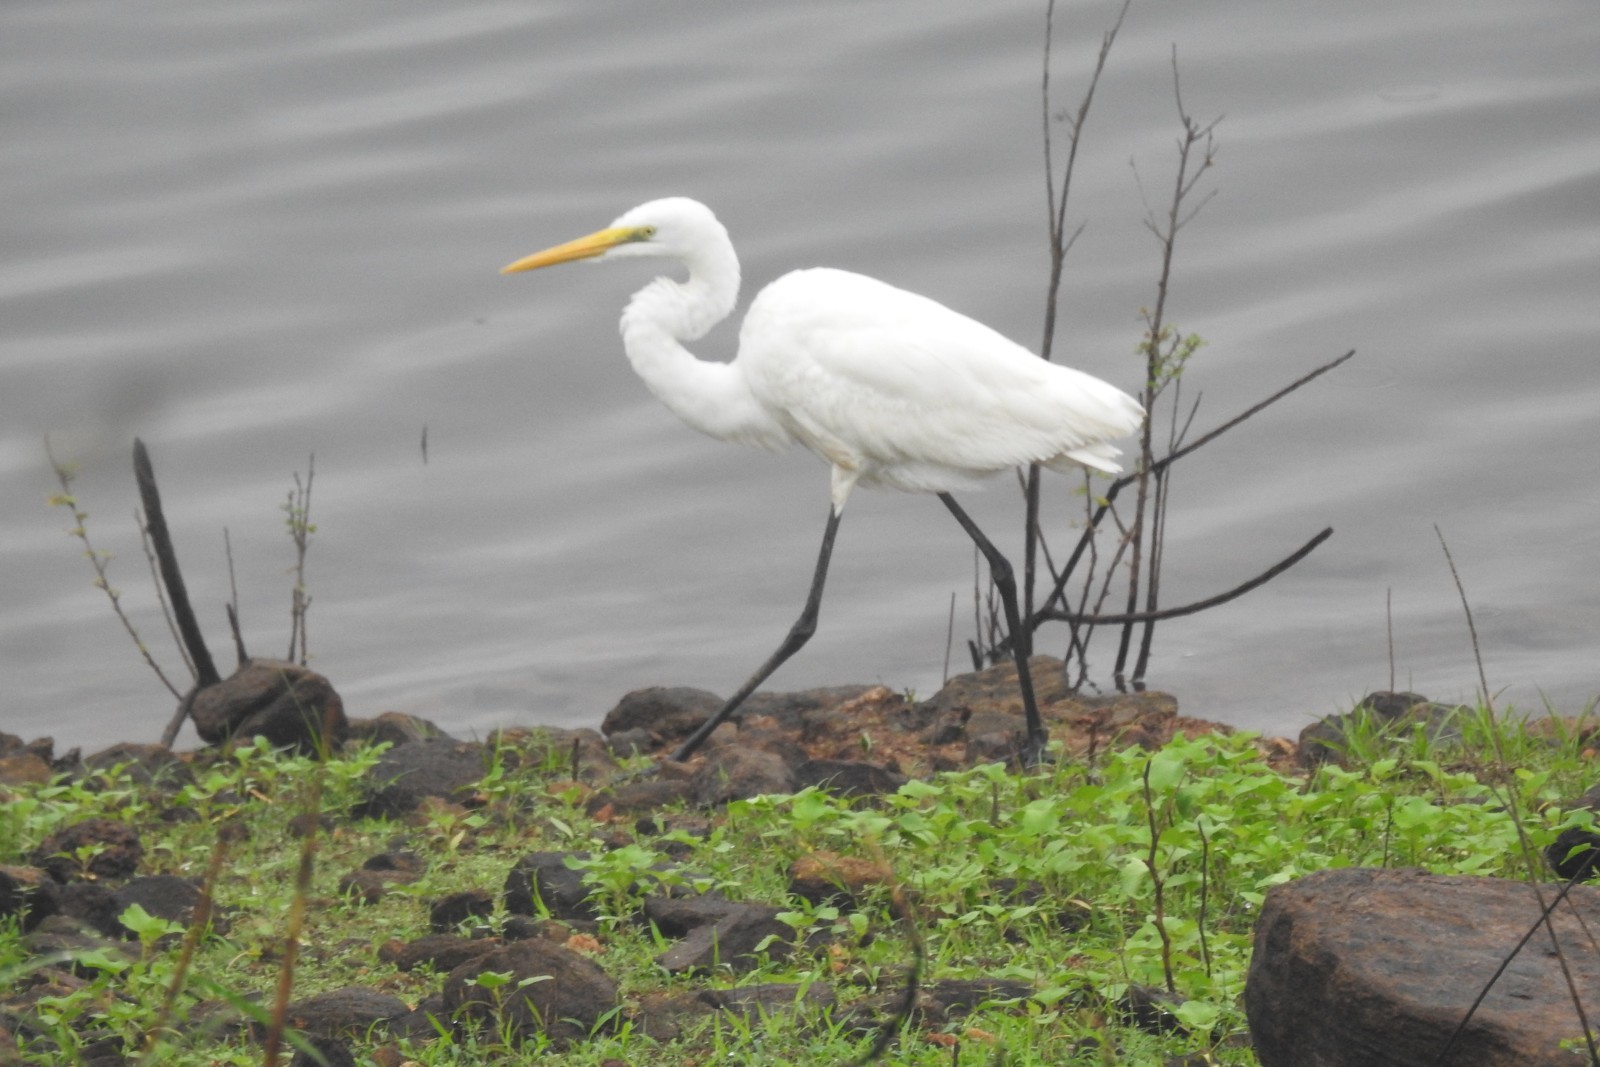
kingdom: Animalia
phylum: Chordata
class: Aves
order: Pelecaniformes
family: Ardeidae
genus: Ardea
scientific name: Ardea alba
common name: Great egret
